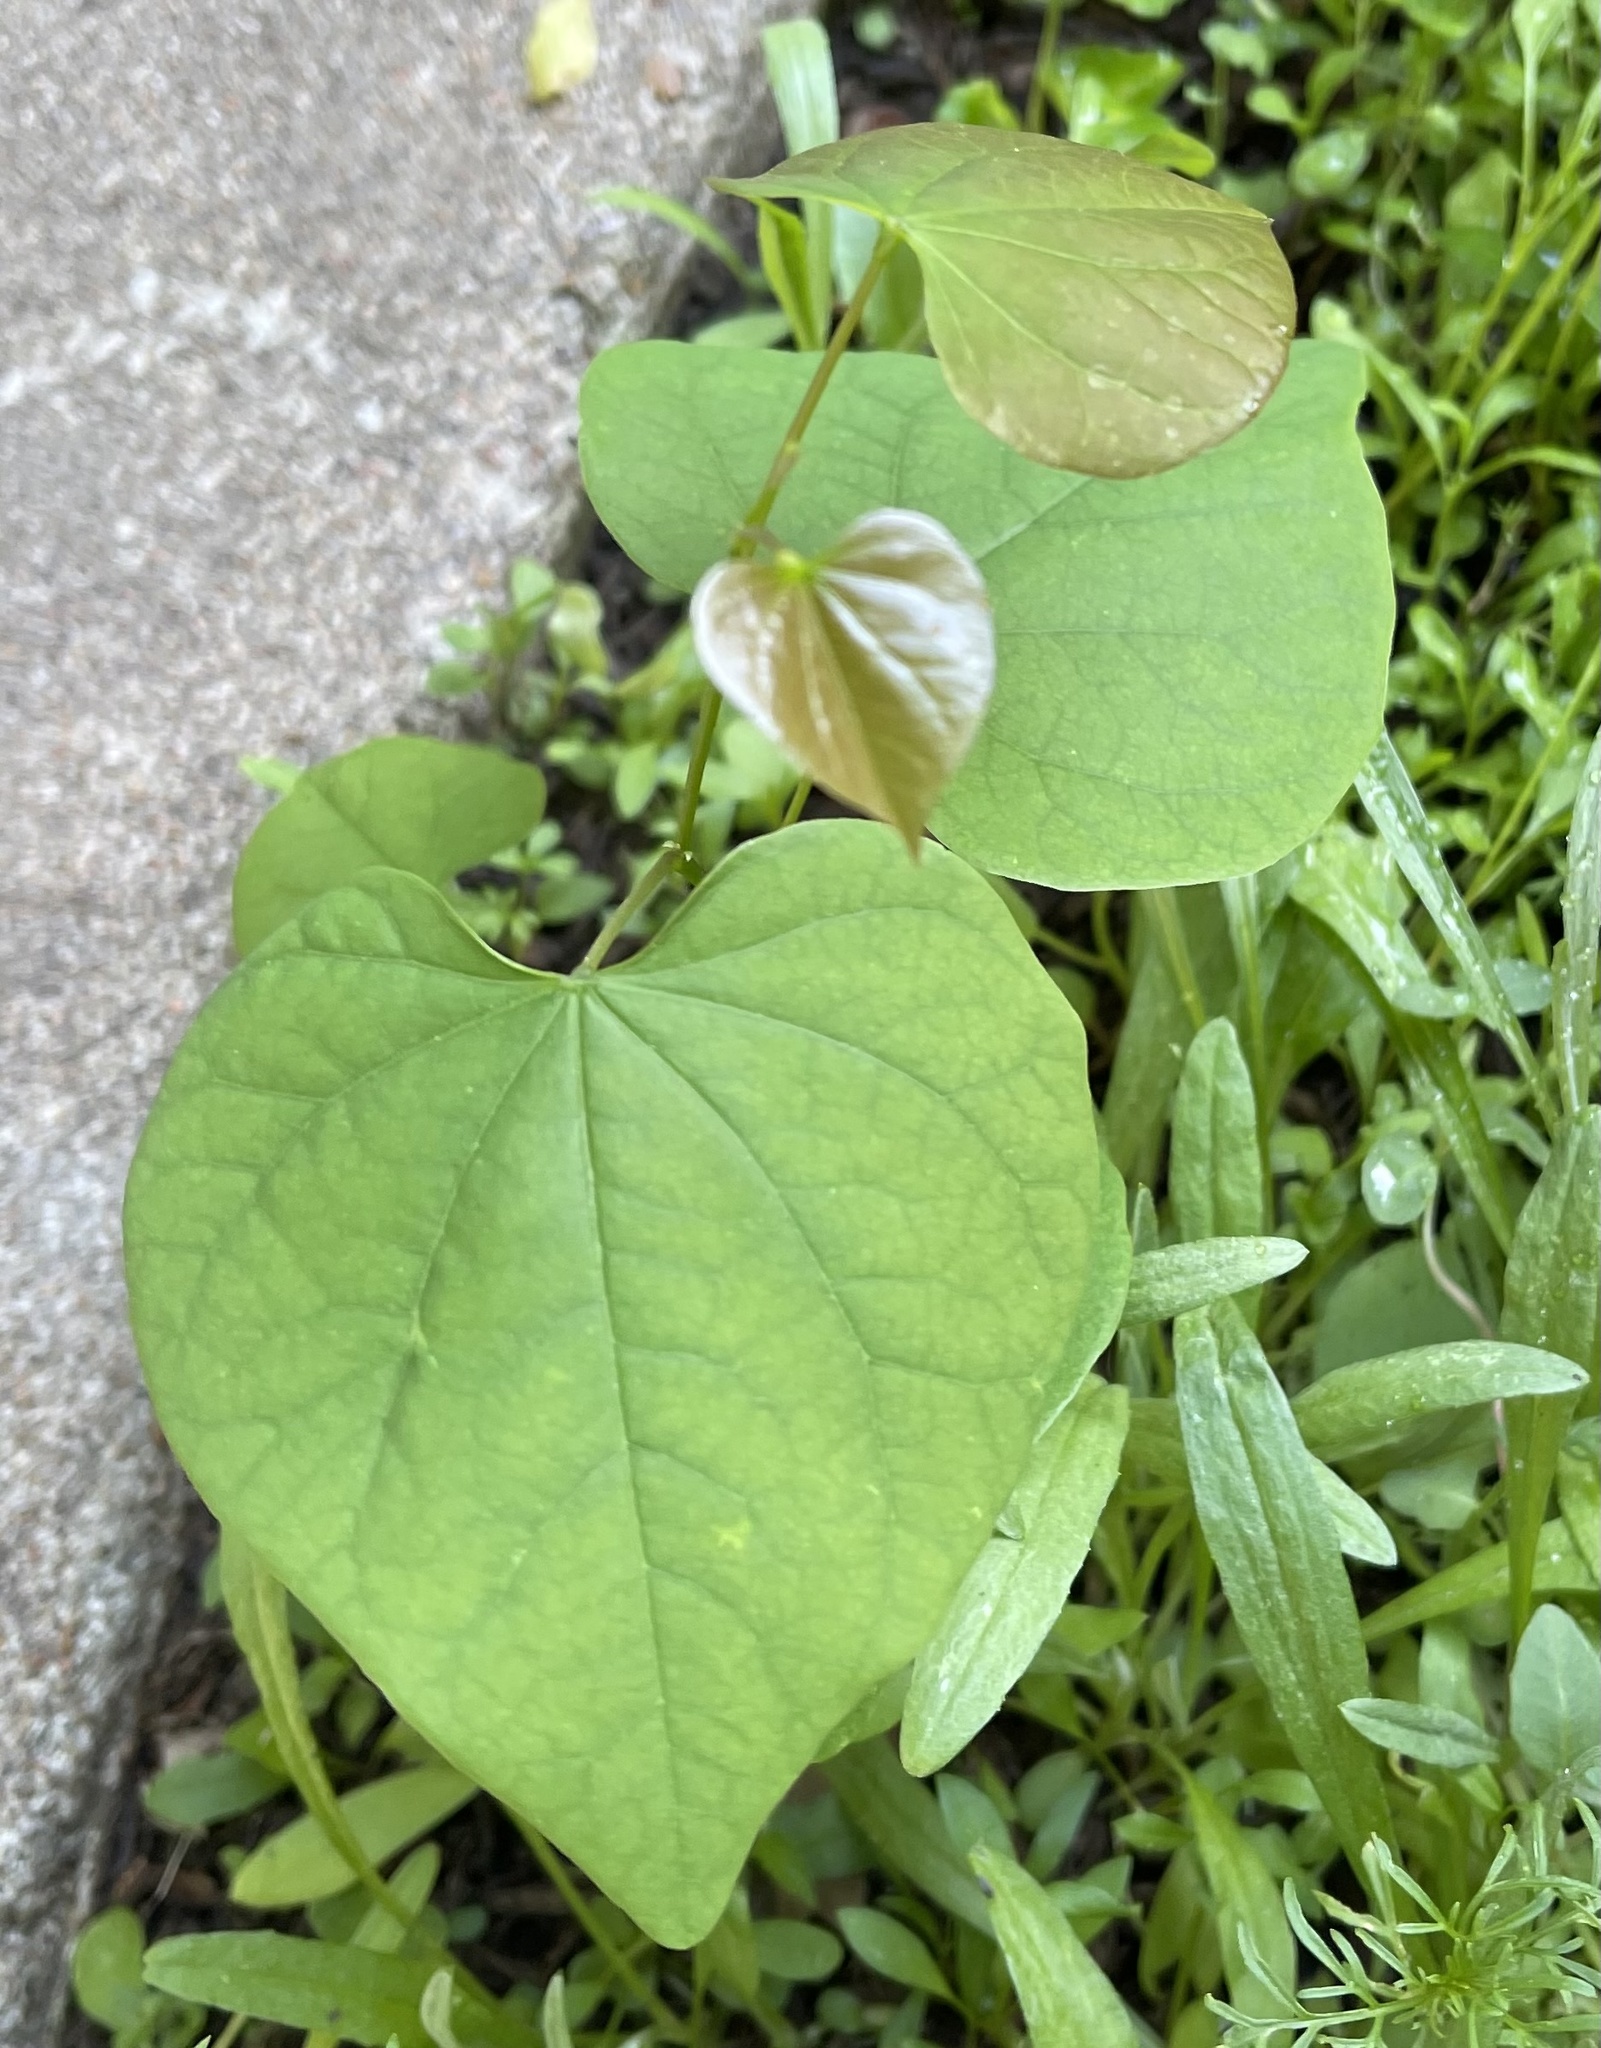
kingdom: Plantae
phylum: Tracheophyta
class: Magnoliopsida
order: Fabales
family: Fabaceae
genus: Cercis
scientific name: Cercis canadensis
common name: Eastern redbud
